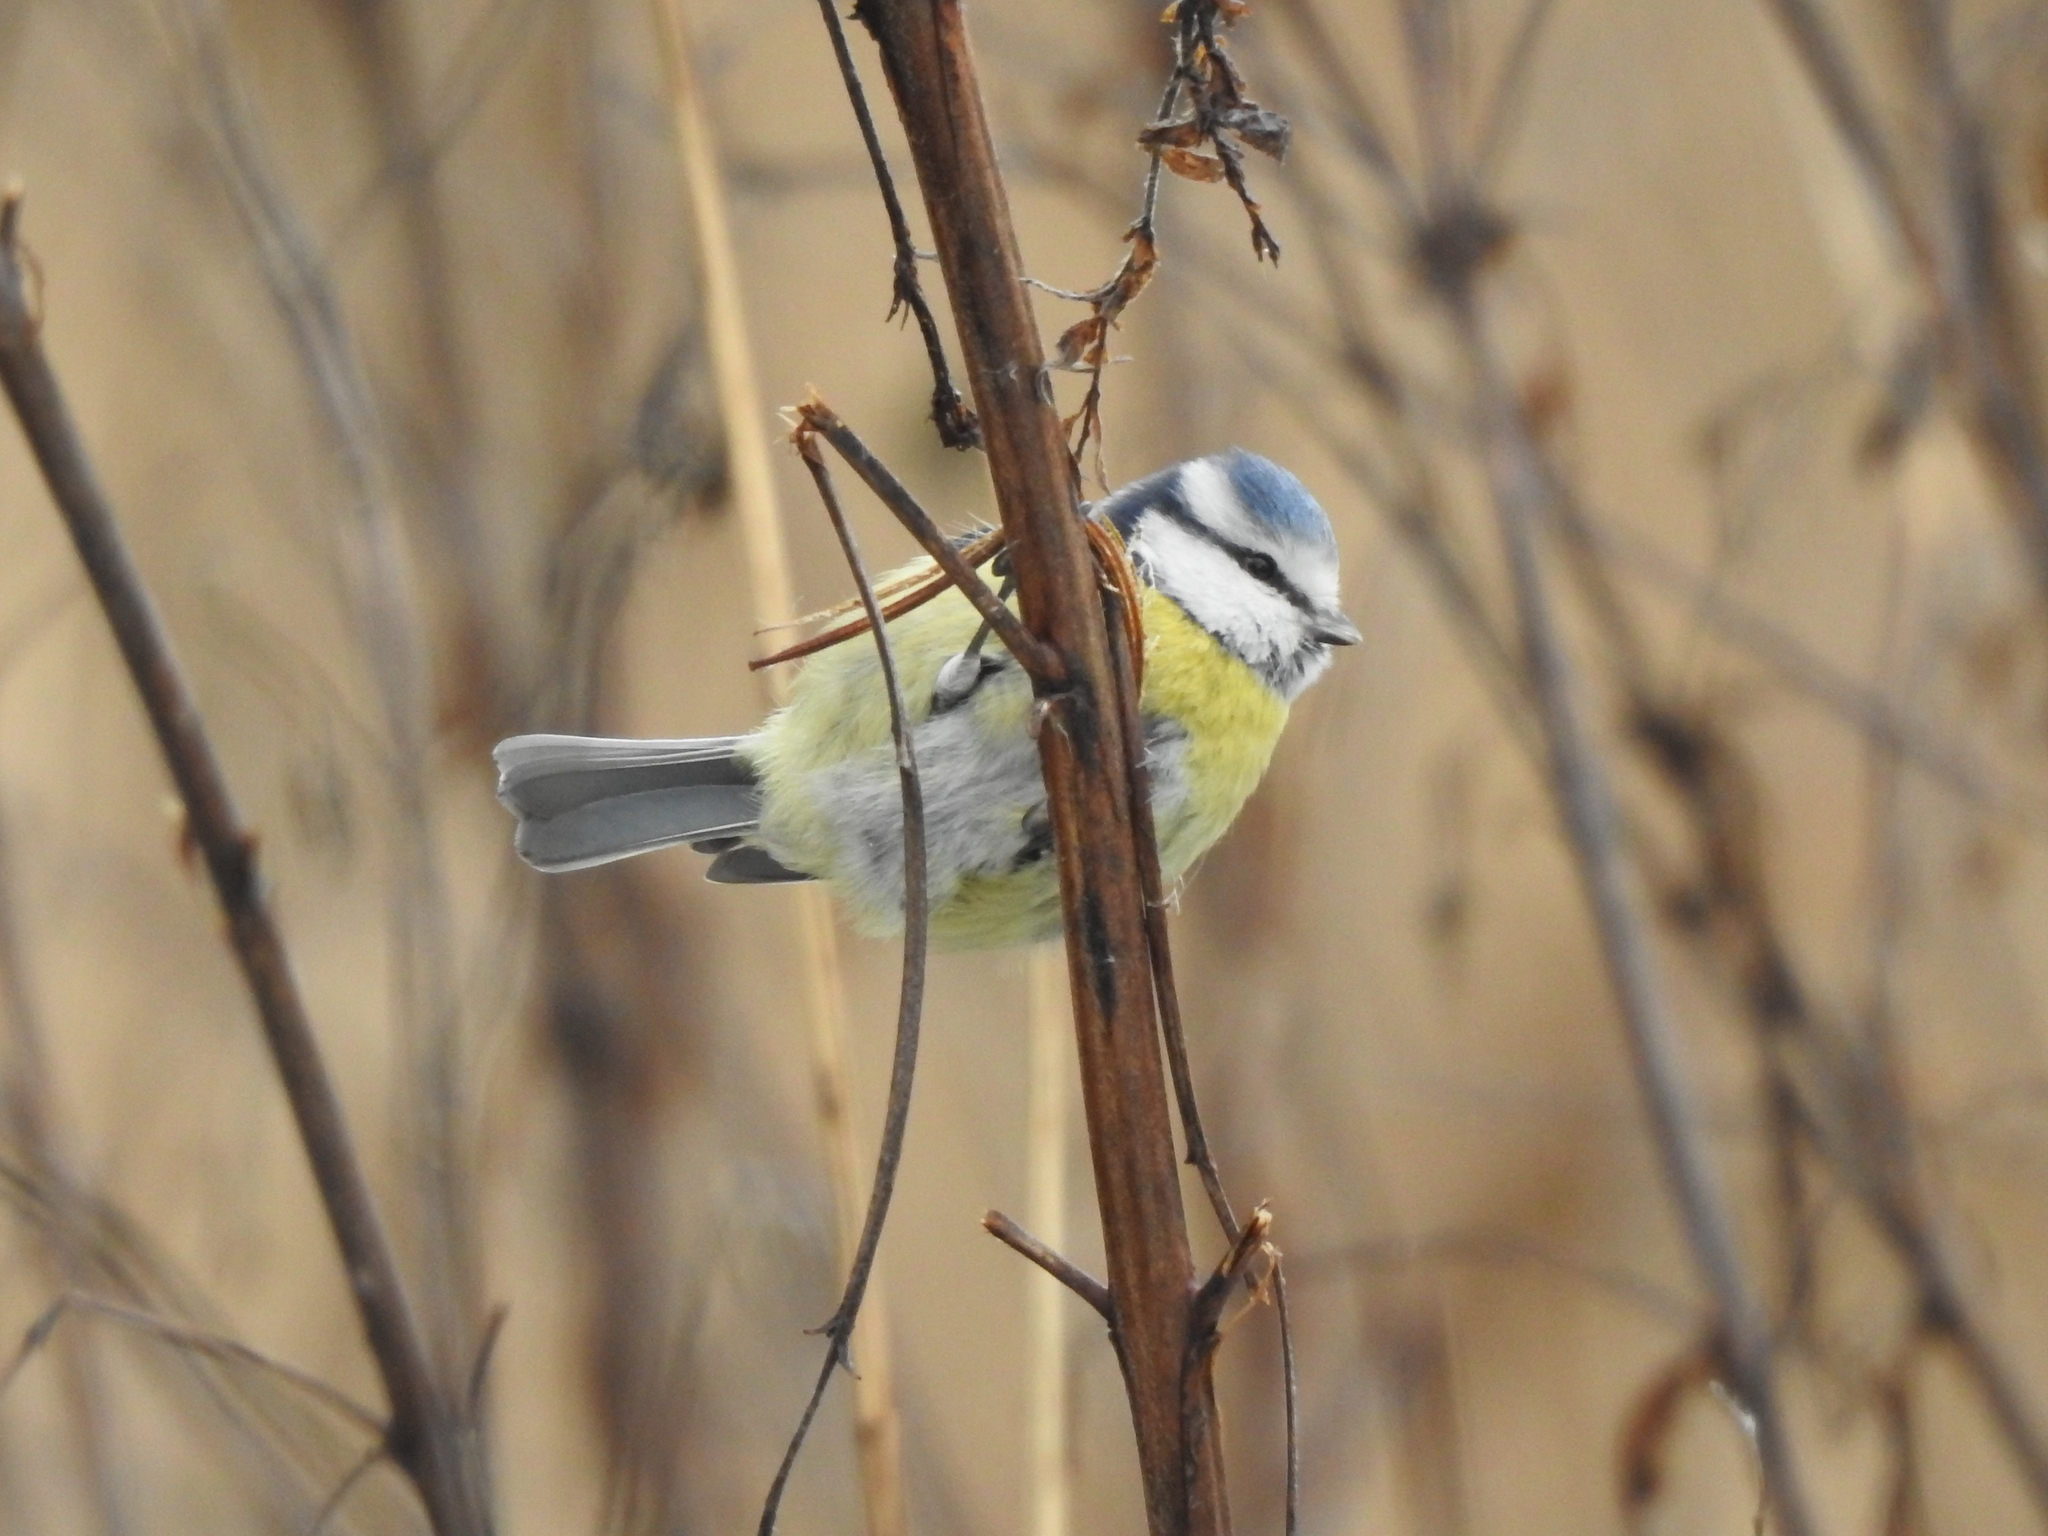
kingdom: Animalia
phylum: Chordata
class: Aves
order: Passeriformes
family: Paridae
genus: Cyanistes
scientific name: Cyanistes caeruleus
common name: Eurasian blue tit
